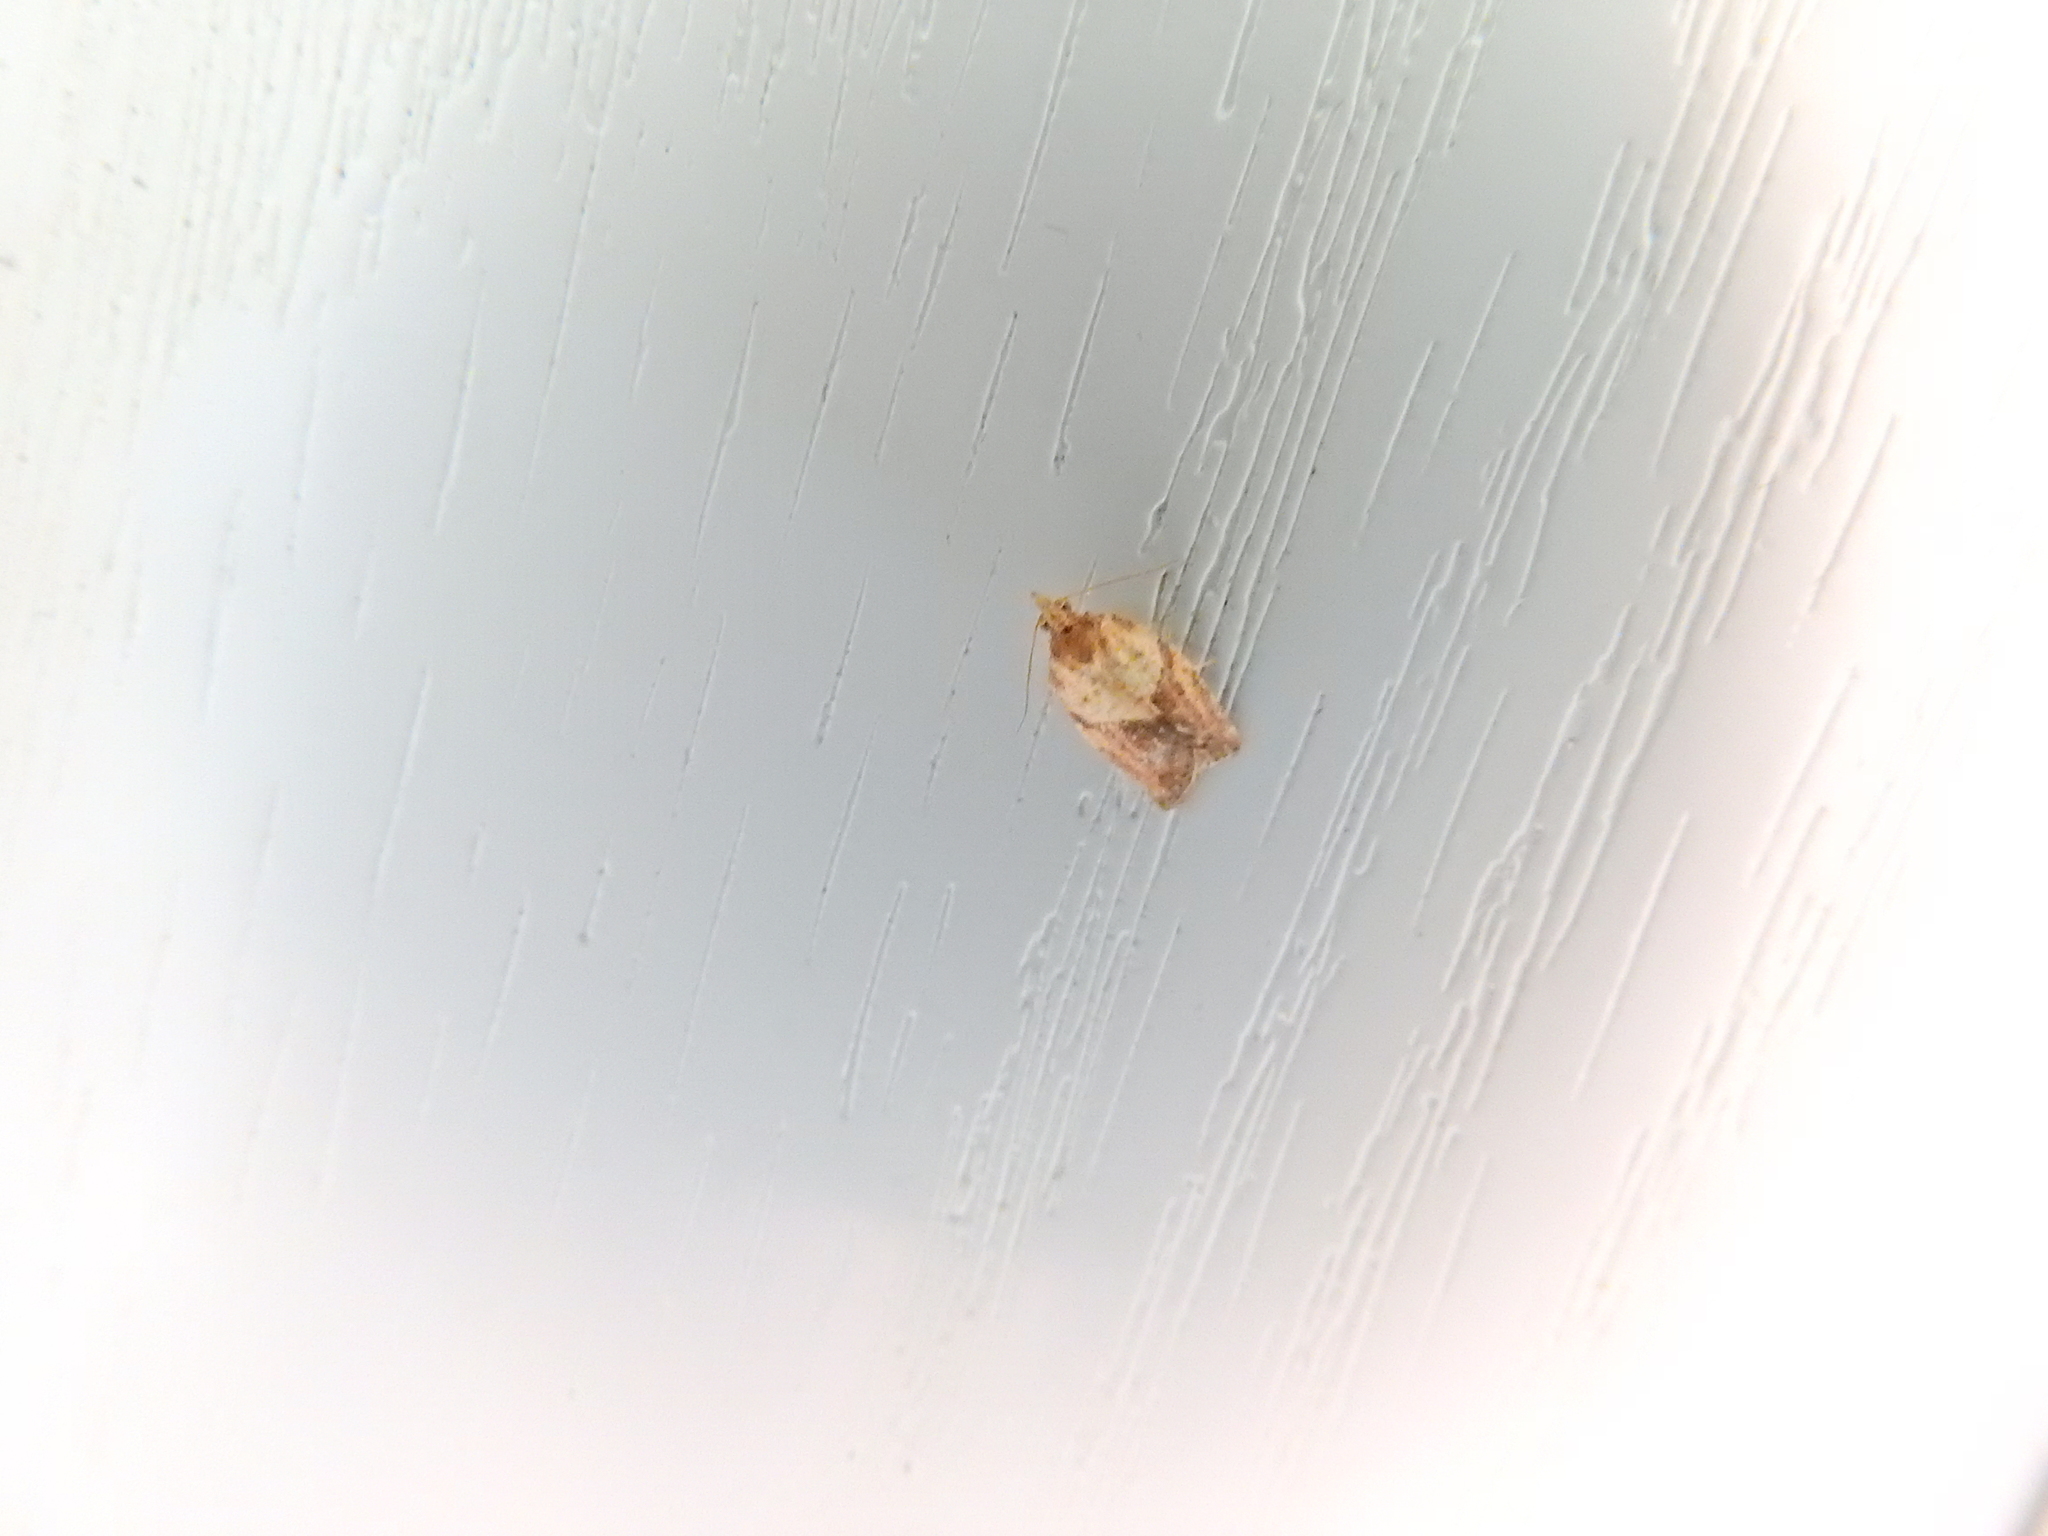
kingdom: Animalia
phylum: Arthropoda
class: Insecta
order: Lepidoptera
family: Tortricidae
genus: Epiphyas
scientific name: Epiphyas postvittana
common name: Light brown apple moth
